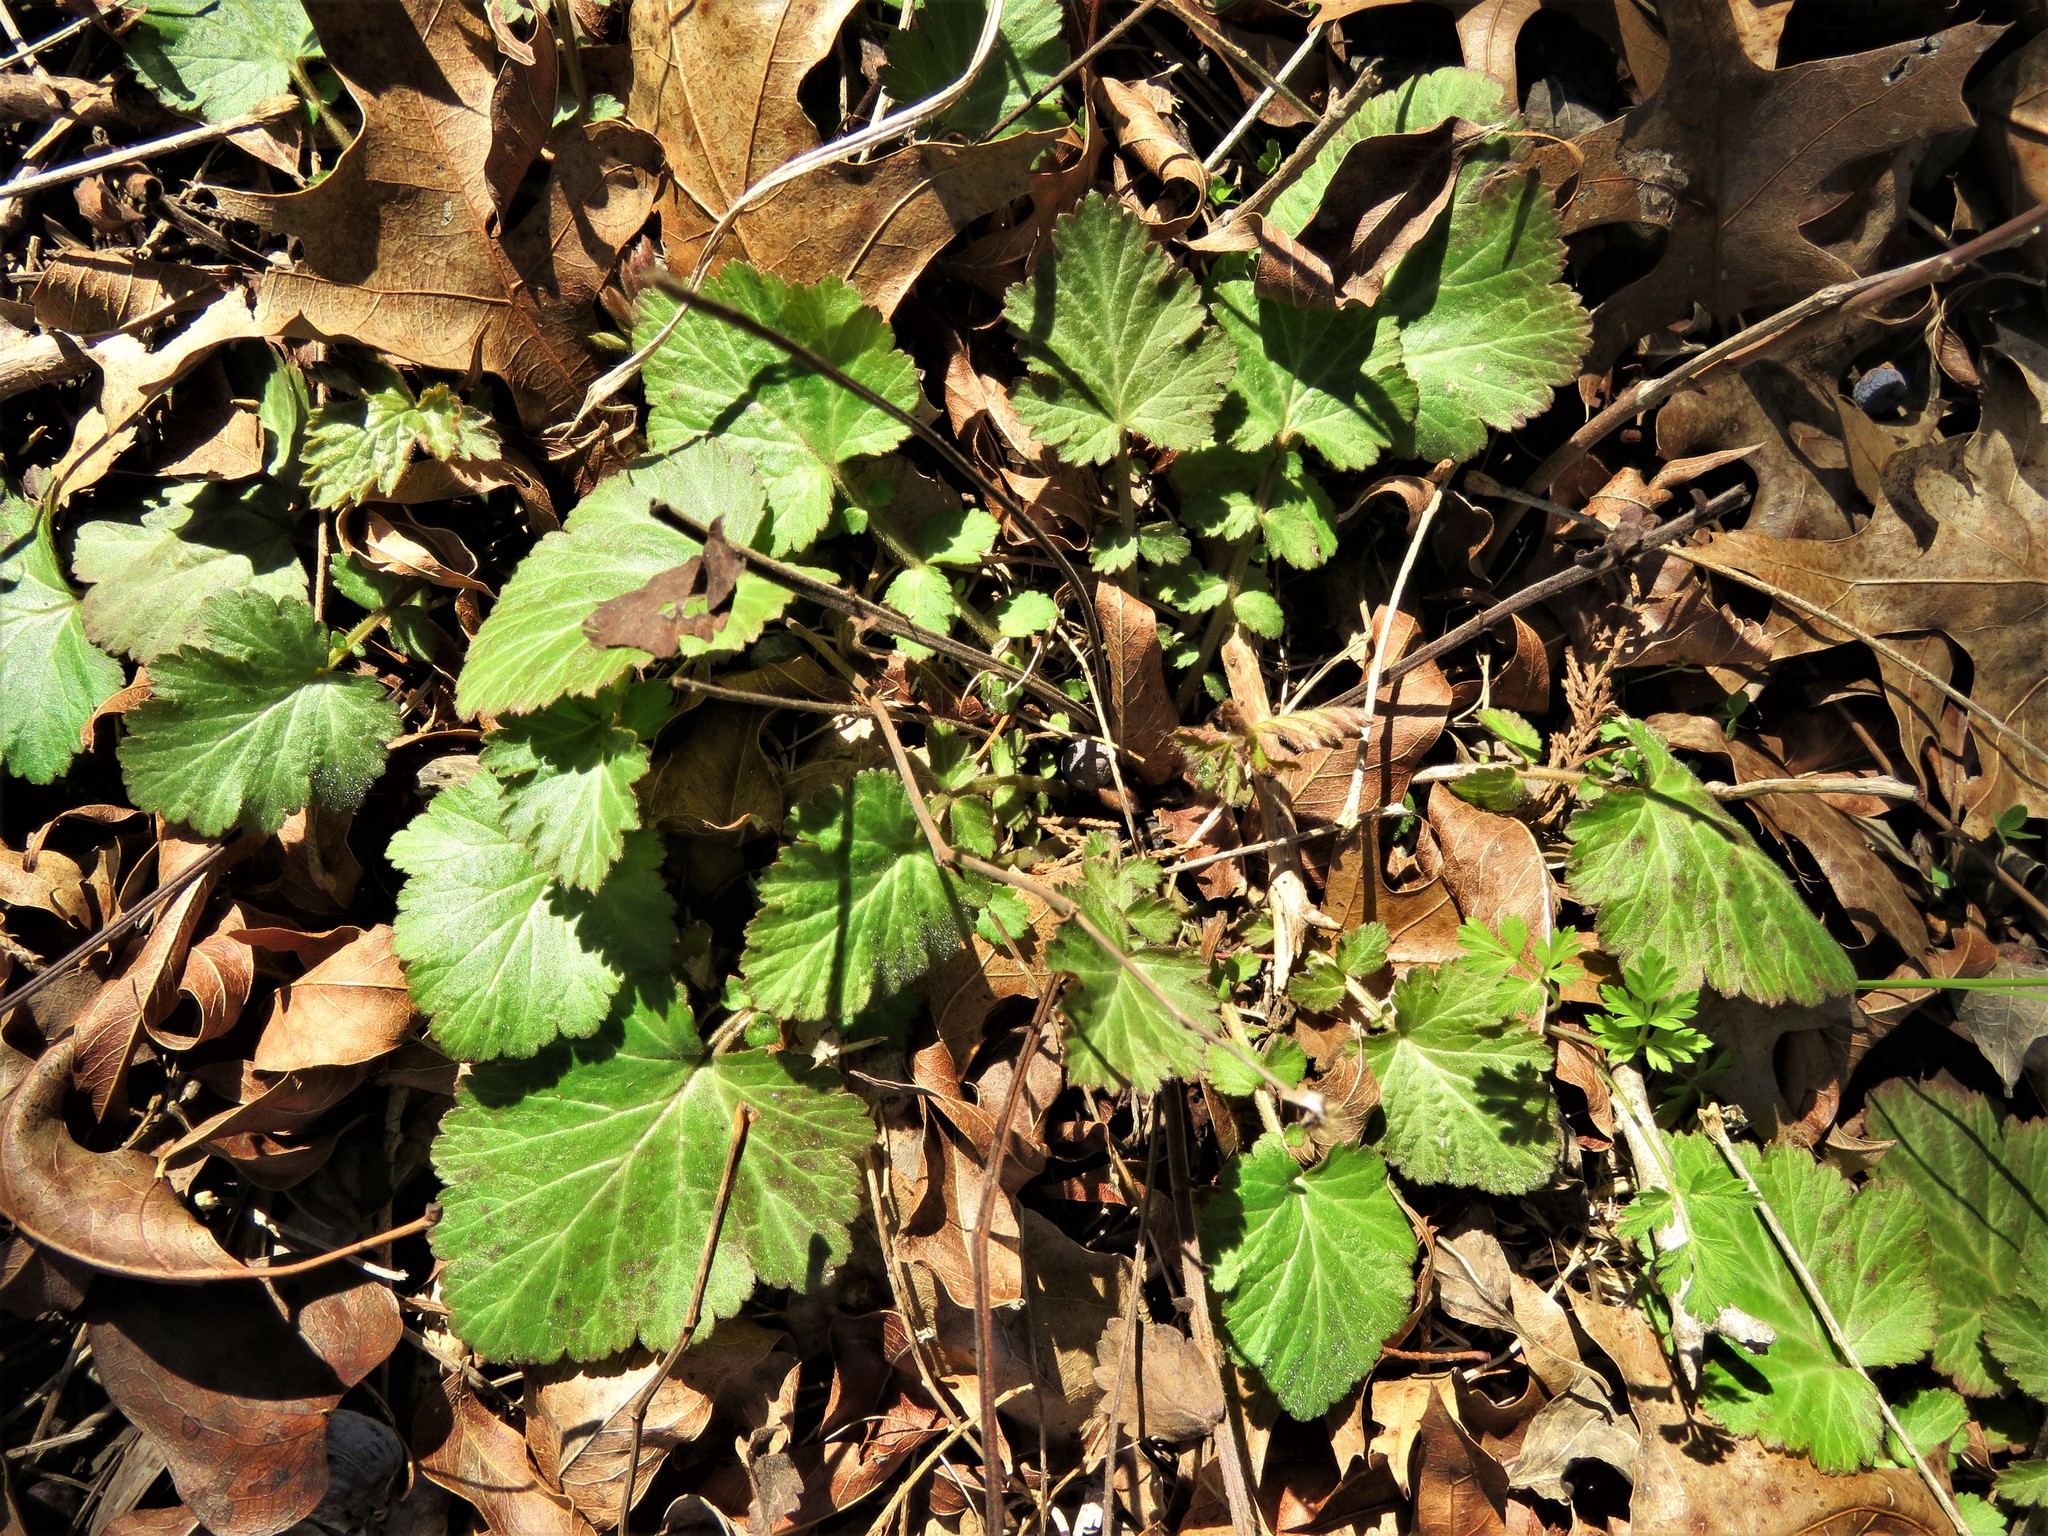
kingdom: Plantae
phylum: Tracheophyta
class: Magnoliopsida
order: Rosales
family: Rosaceae
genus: Geum
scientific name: Geum canadense
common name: White avens
